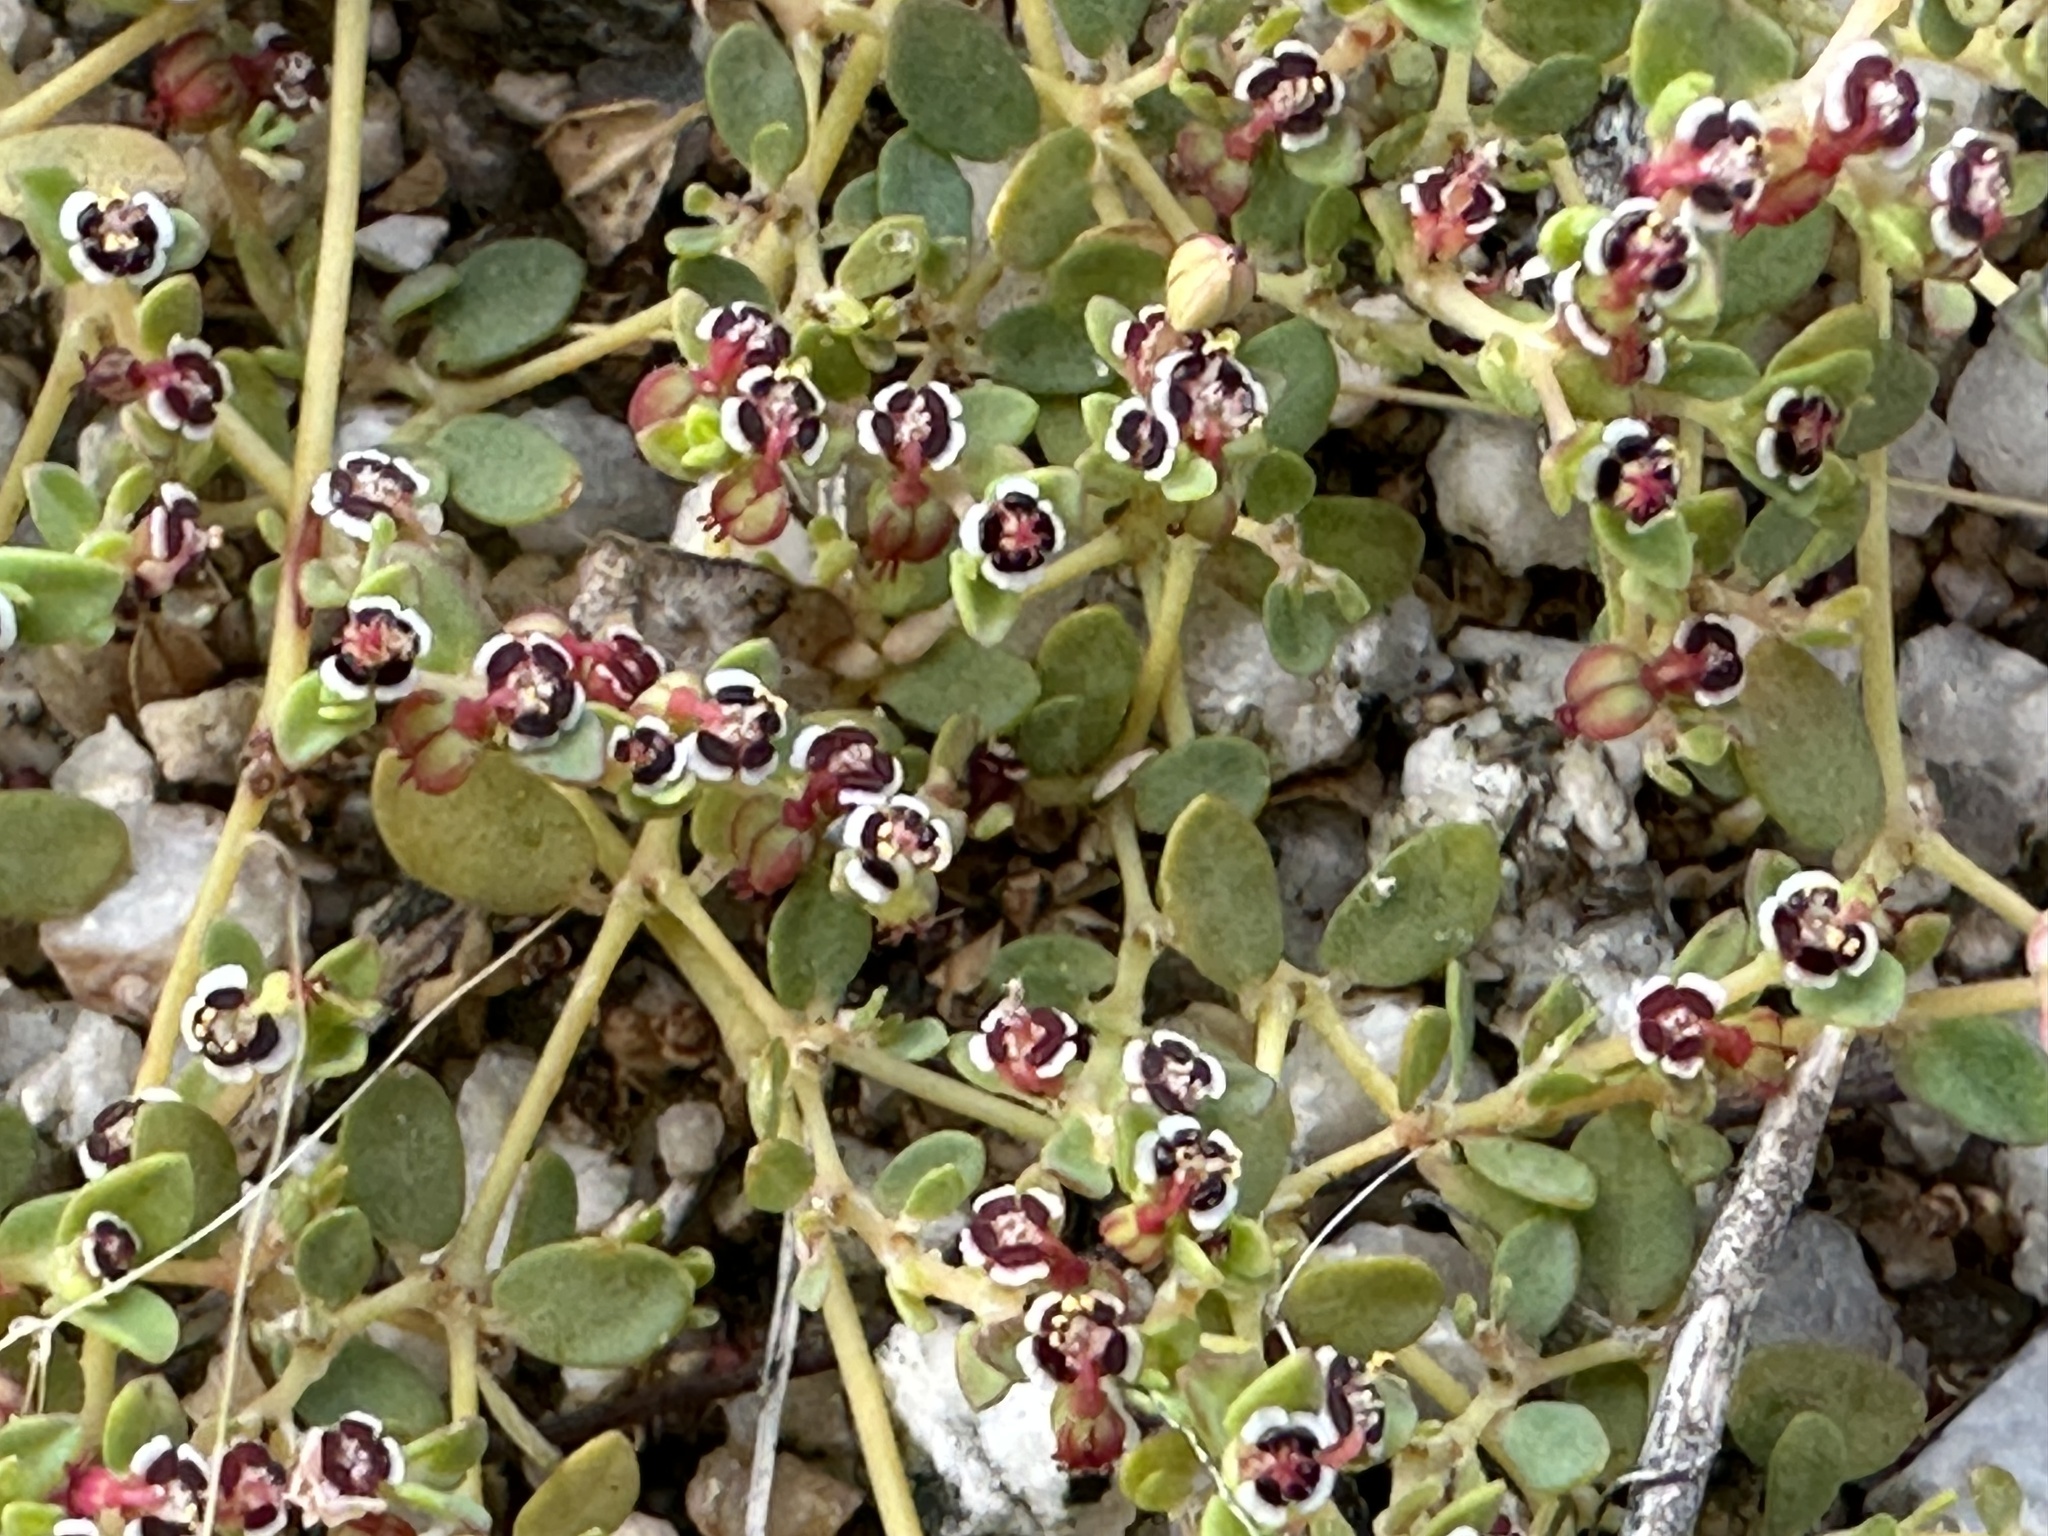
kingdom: Plantae
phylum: Tracheophyta
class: Magnoliopsida
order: Malpighiales
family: Euphorbiaceae
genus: Euphorbia
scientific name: Euphorbia polycarpa
